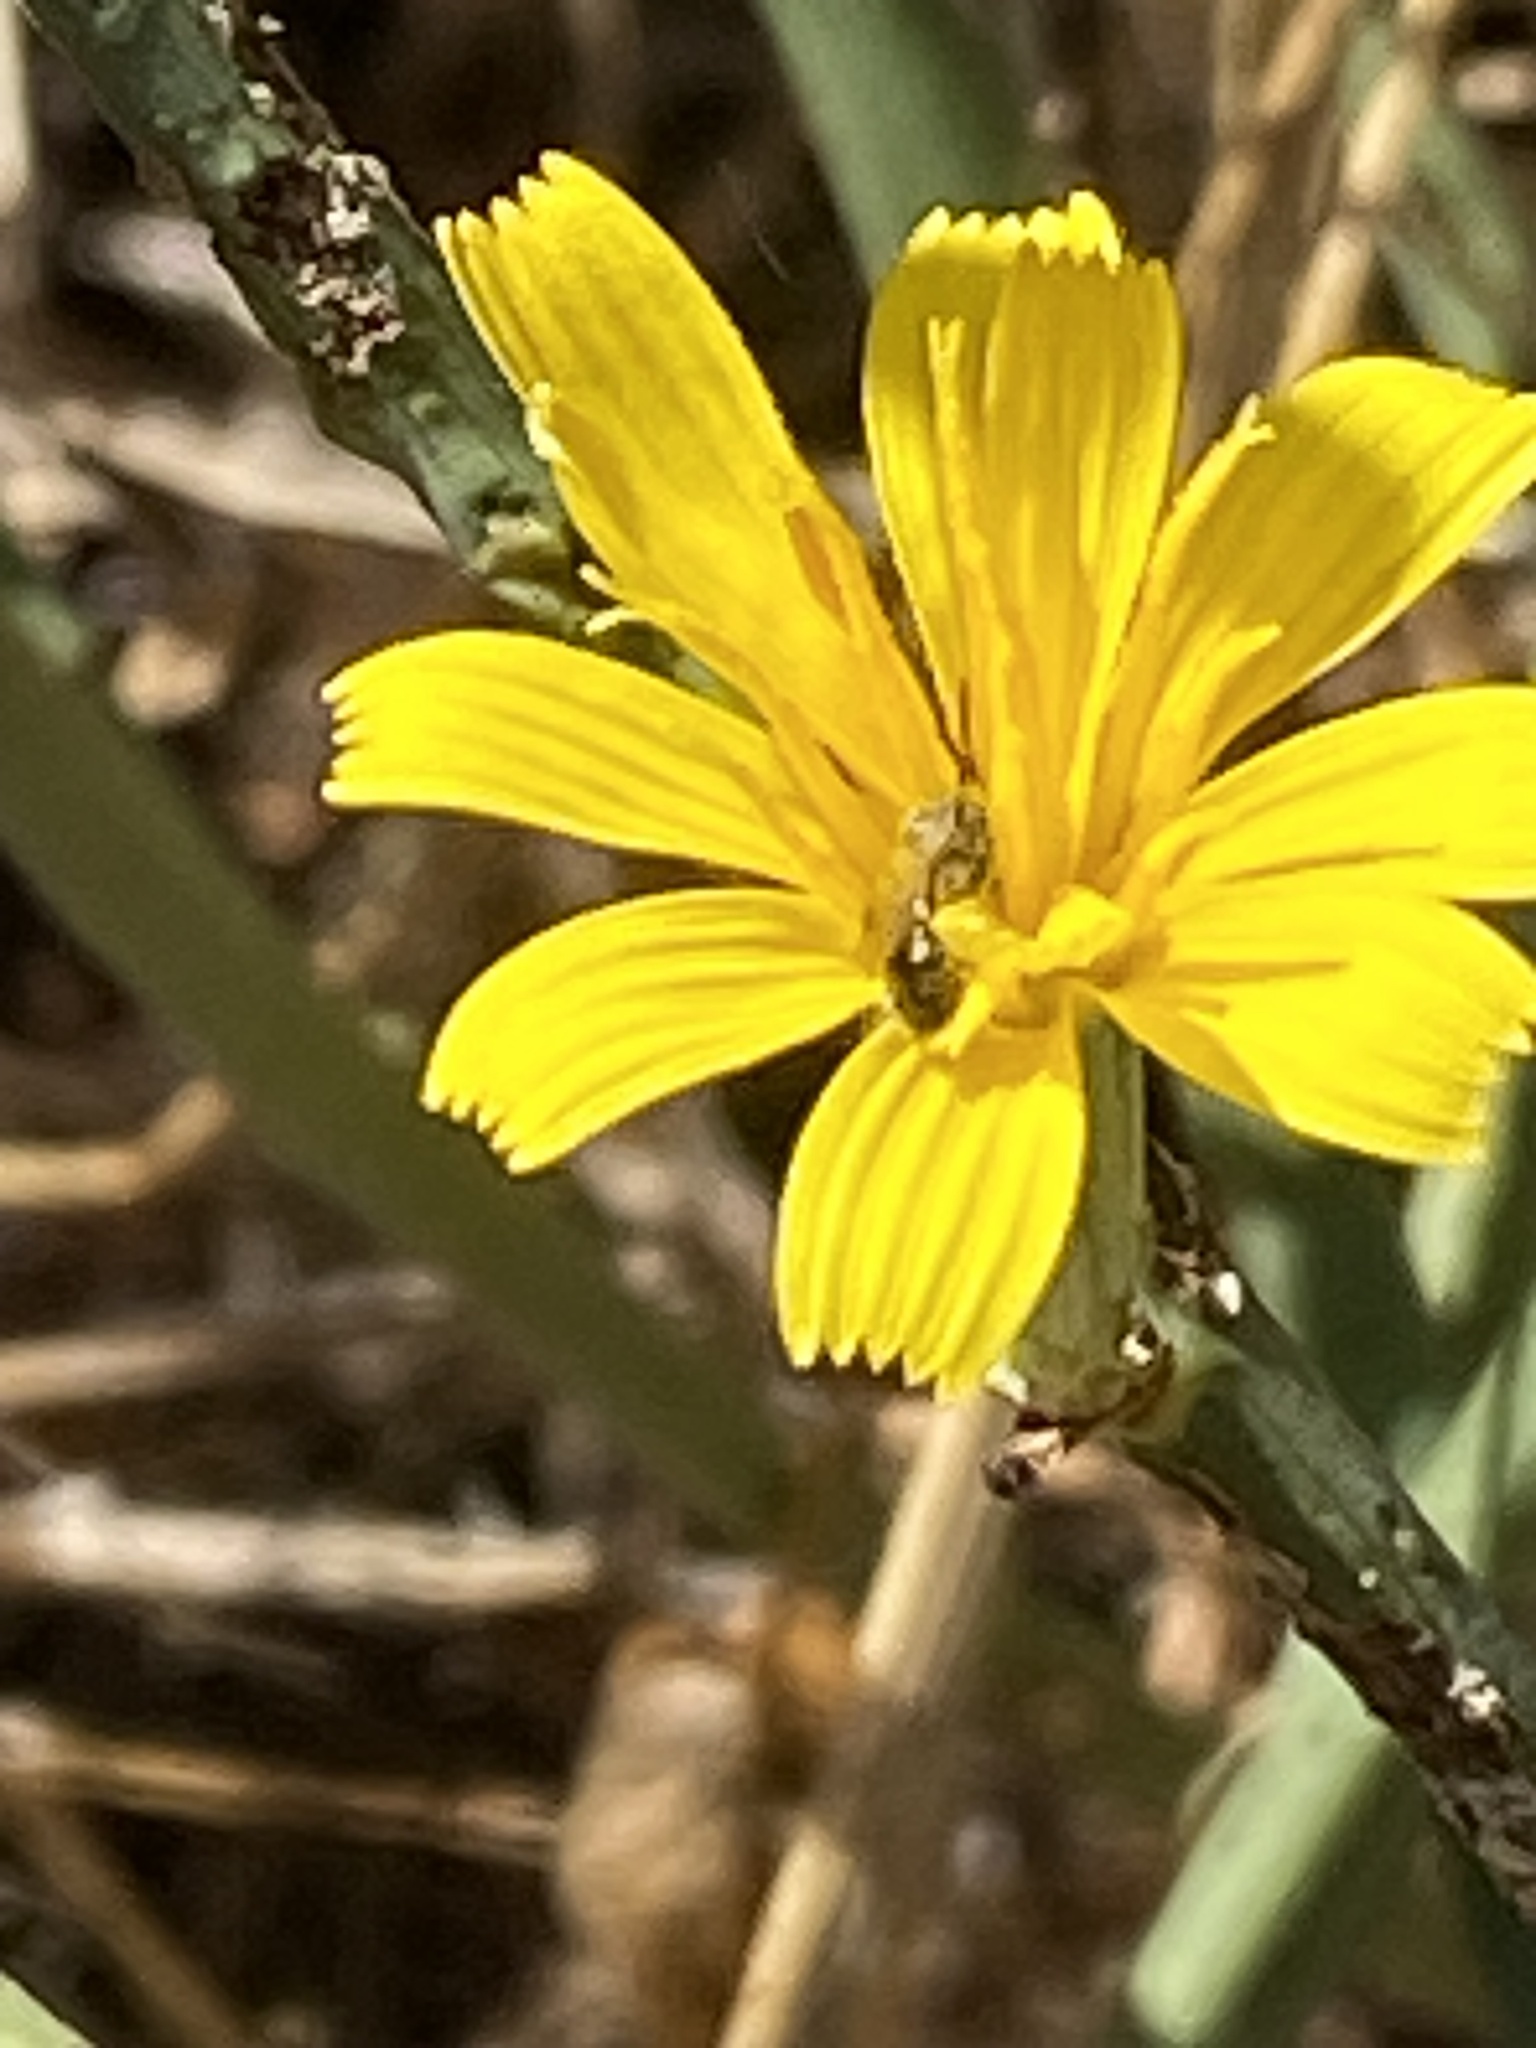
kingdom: Plantae
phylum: Tracheophyta
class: Magnoliopsida
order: Asterales
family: Asteraceae
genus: Chondrilla
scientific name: Chondrilla juncea
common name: Skeleton weed
